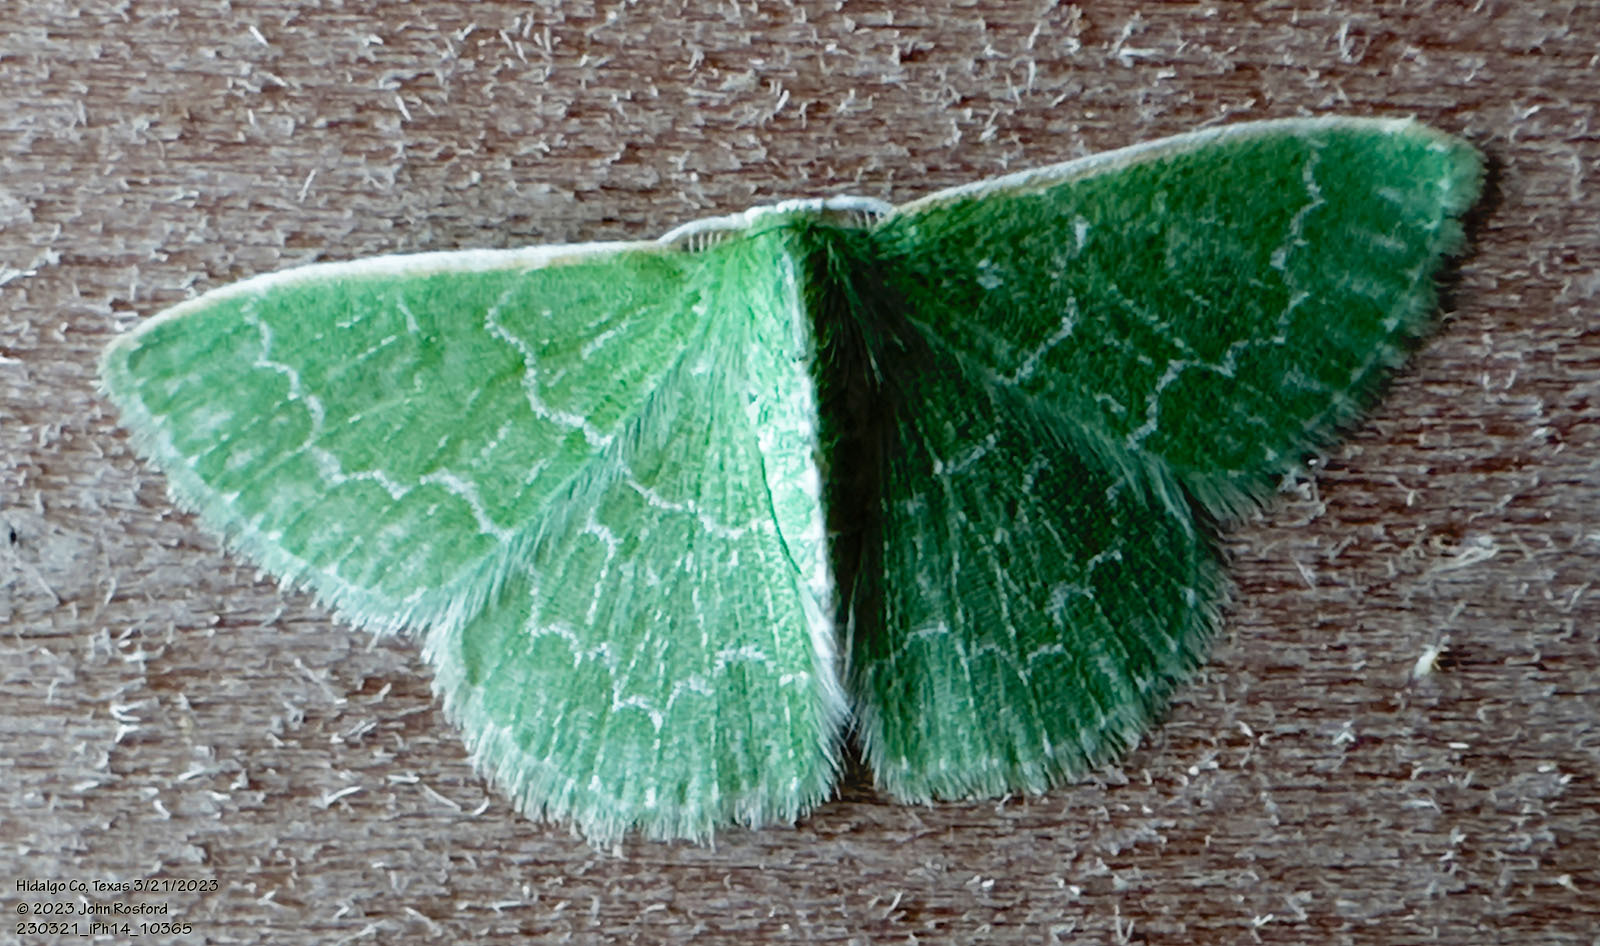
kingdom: Animalia
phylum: Arthropoda
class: Insecta
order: Lepidoptera
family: Geometridae
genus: Synchlora
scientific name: Synchlora frondaria
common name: Southern emerald
